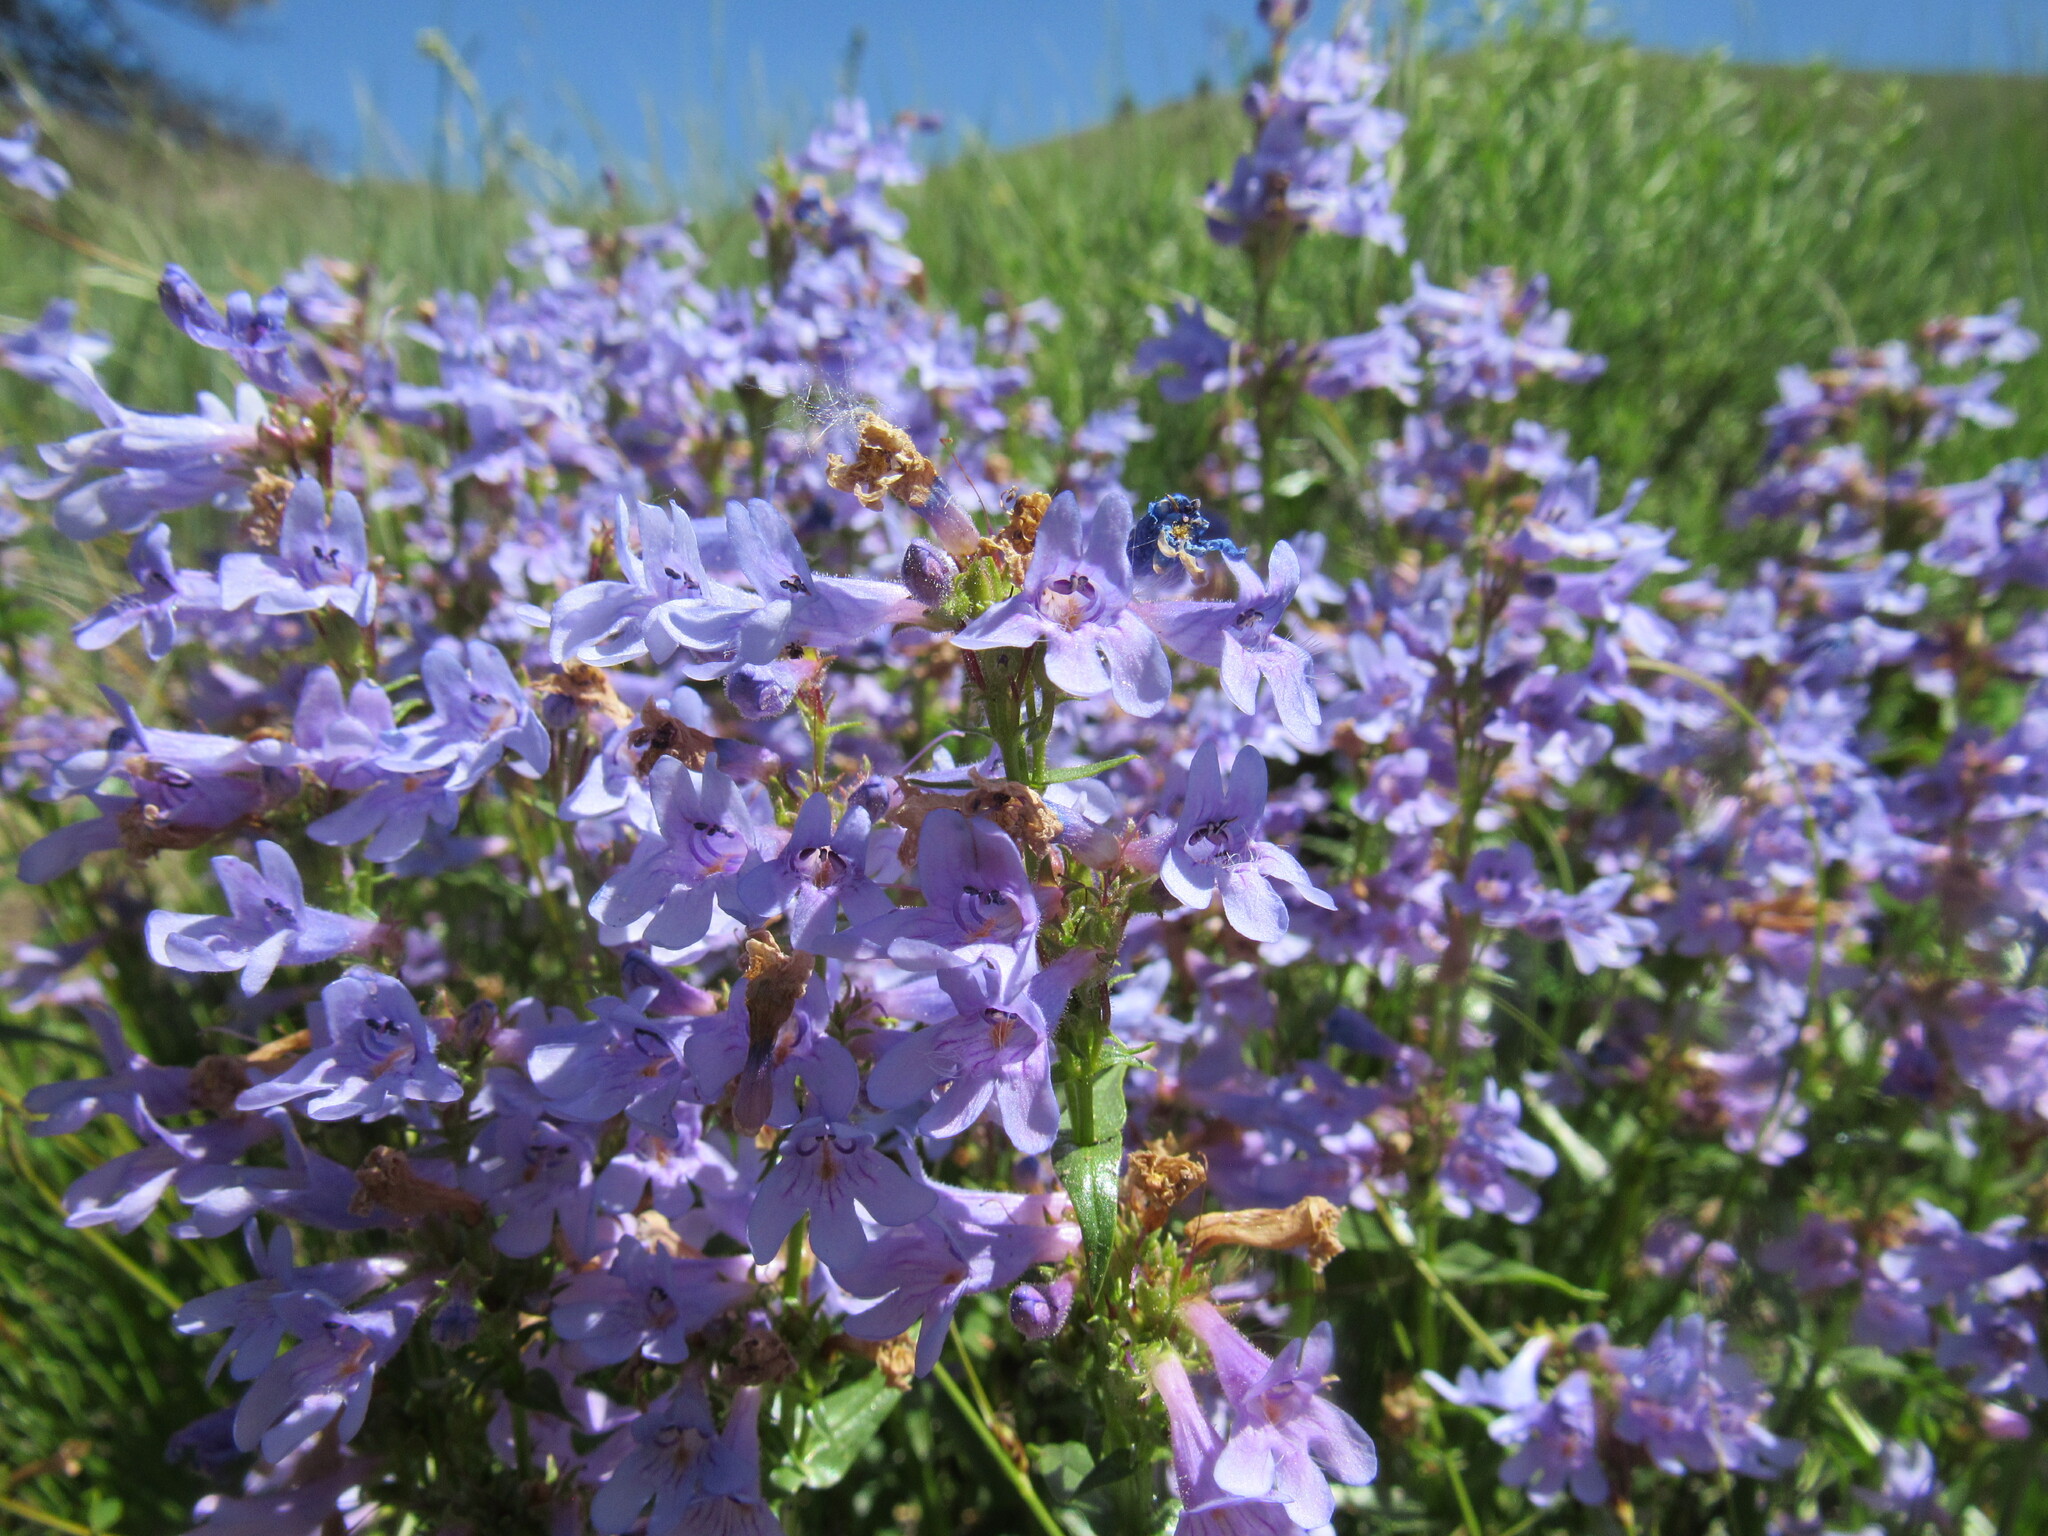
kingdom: Plantae
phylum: Tracheophyta
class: Magnoliopsida
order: Lamiales
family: Plantaginaceae
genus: Penstemon
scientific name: Penstemon virens
